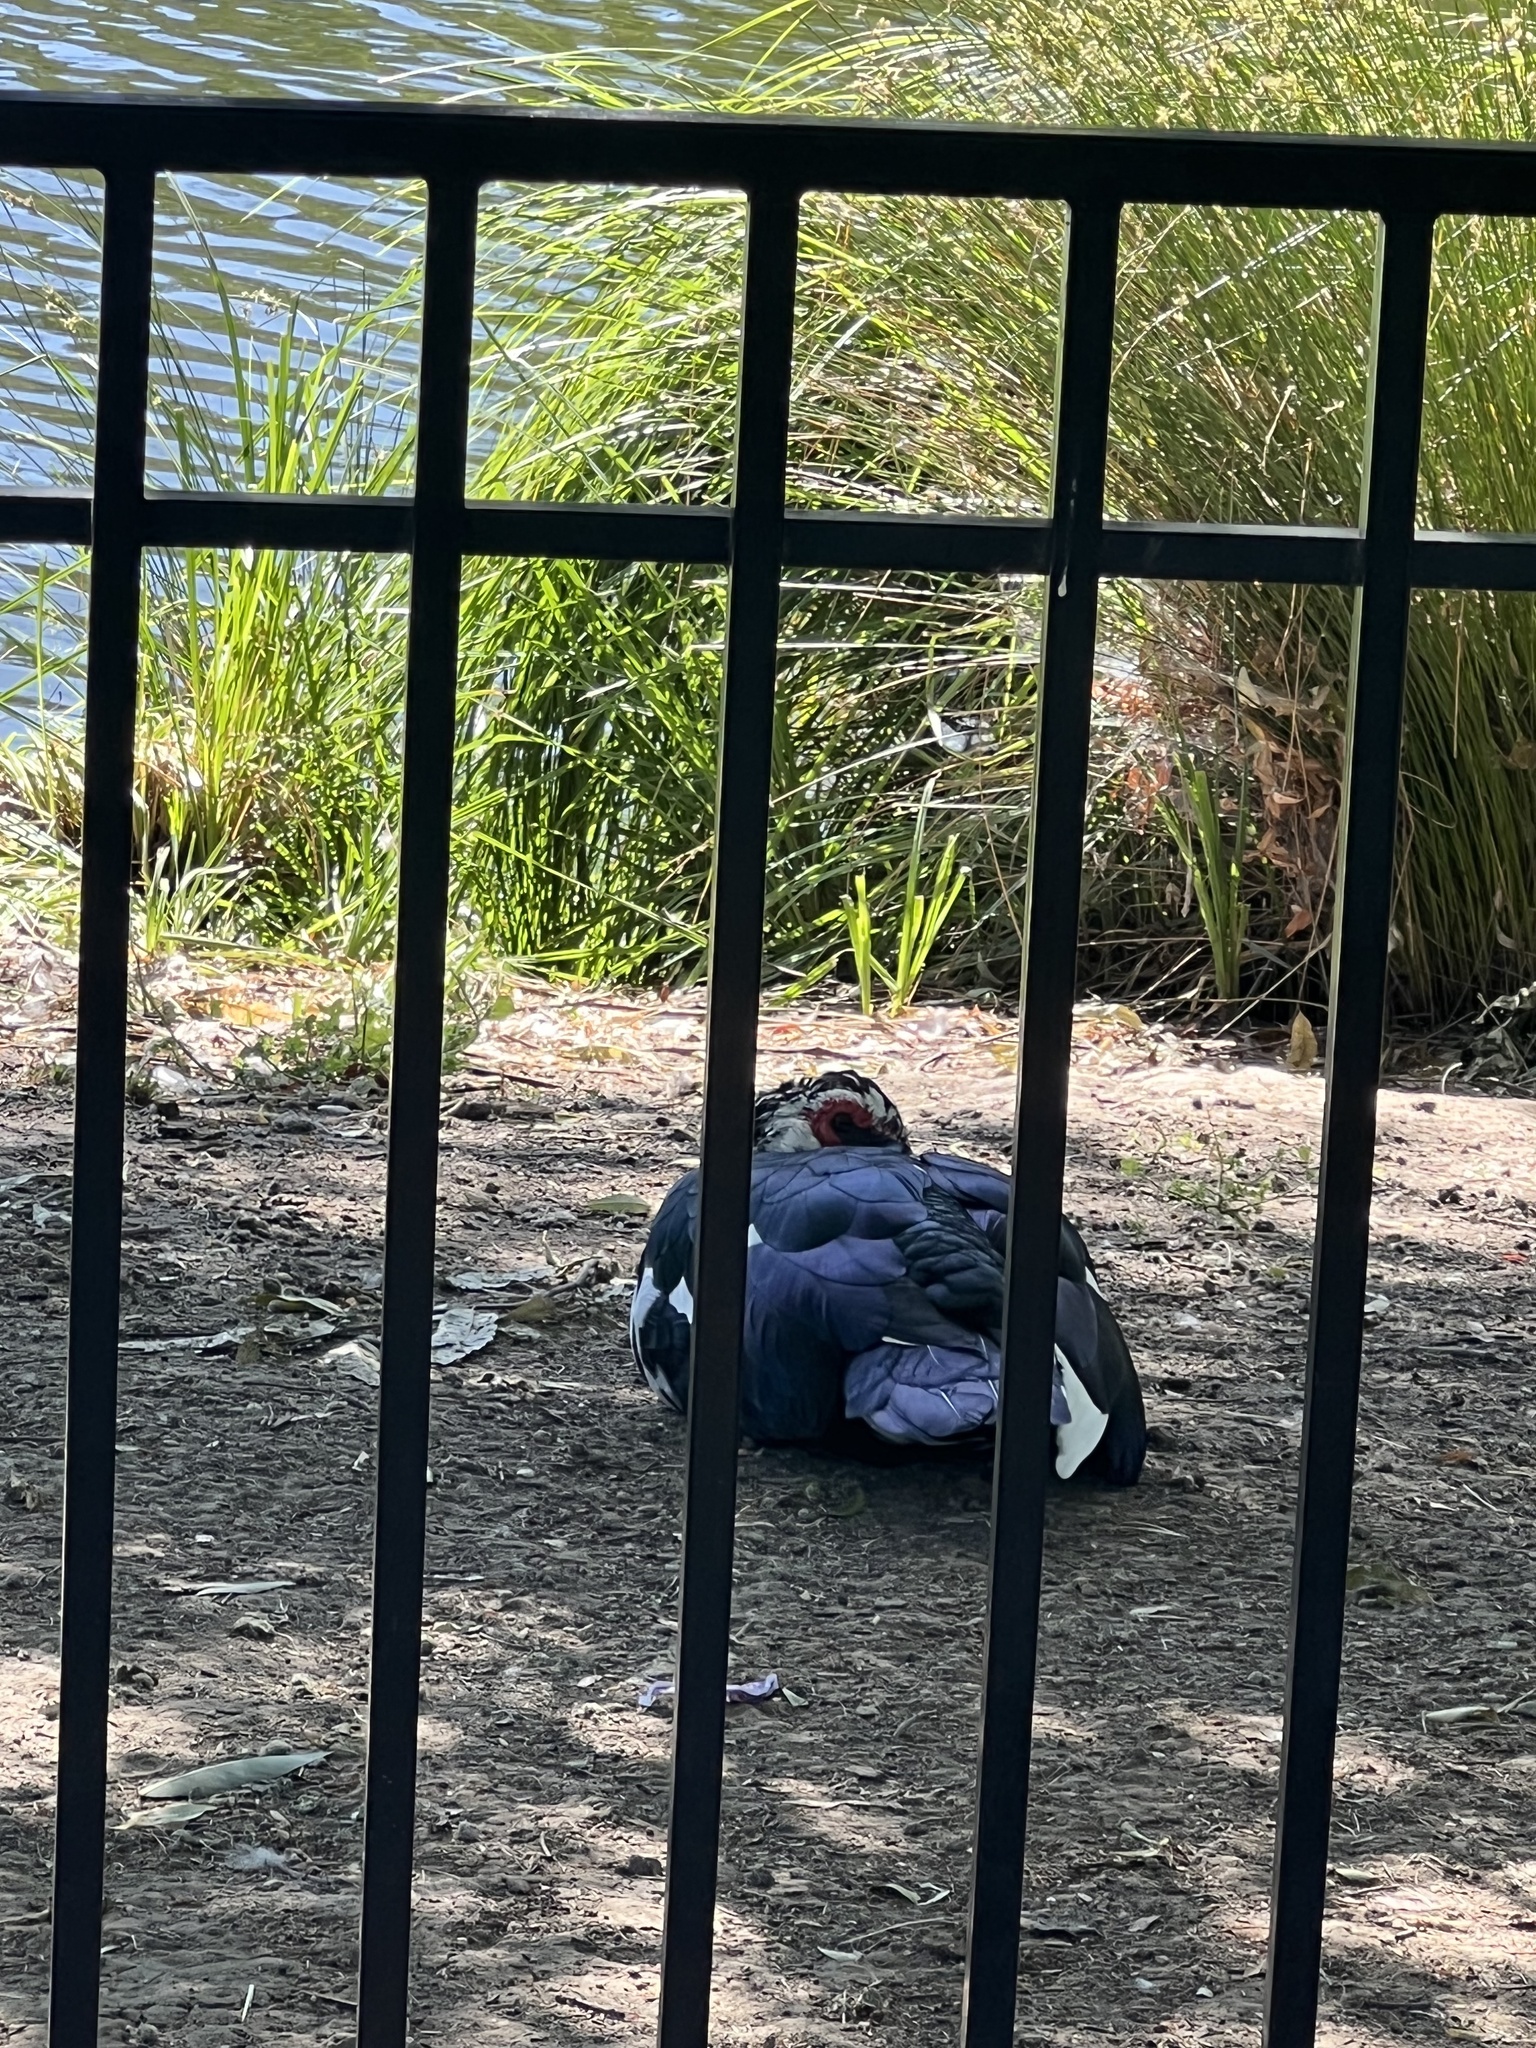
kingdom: Animalia
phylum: Chordata
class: Aves
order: Anseriformes
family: Anatidae
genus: Cairina
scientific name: Cairina moschata
